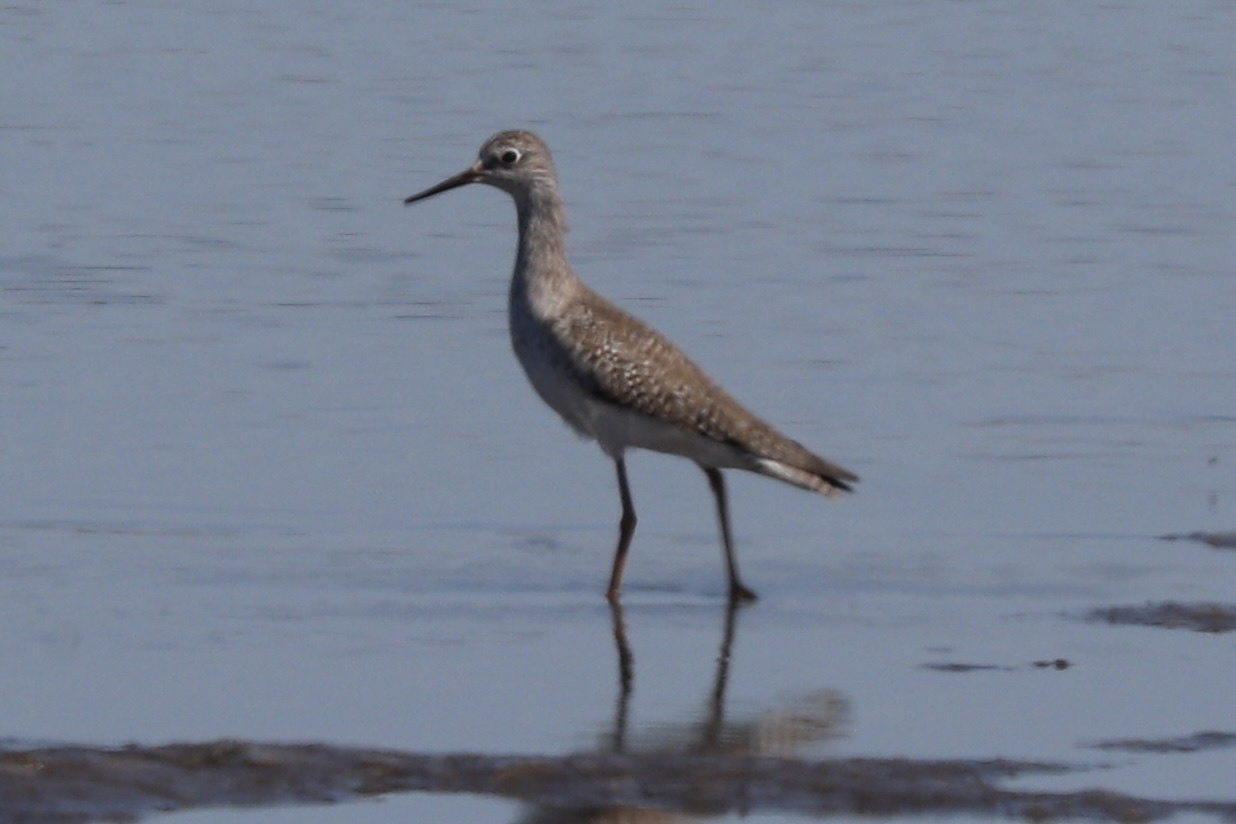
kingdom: Animalia
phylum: Chordata
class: Aves
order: Charadriiformes
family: Scolopacidae
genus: Tringa
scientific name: Tringa flavipes
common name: Lesser yellowlegs
